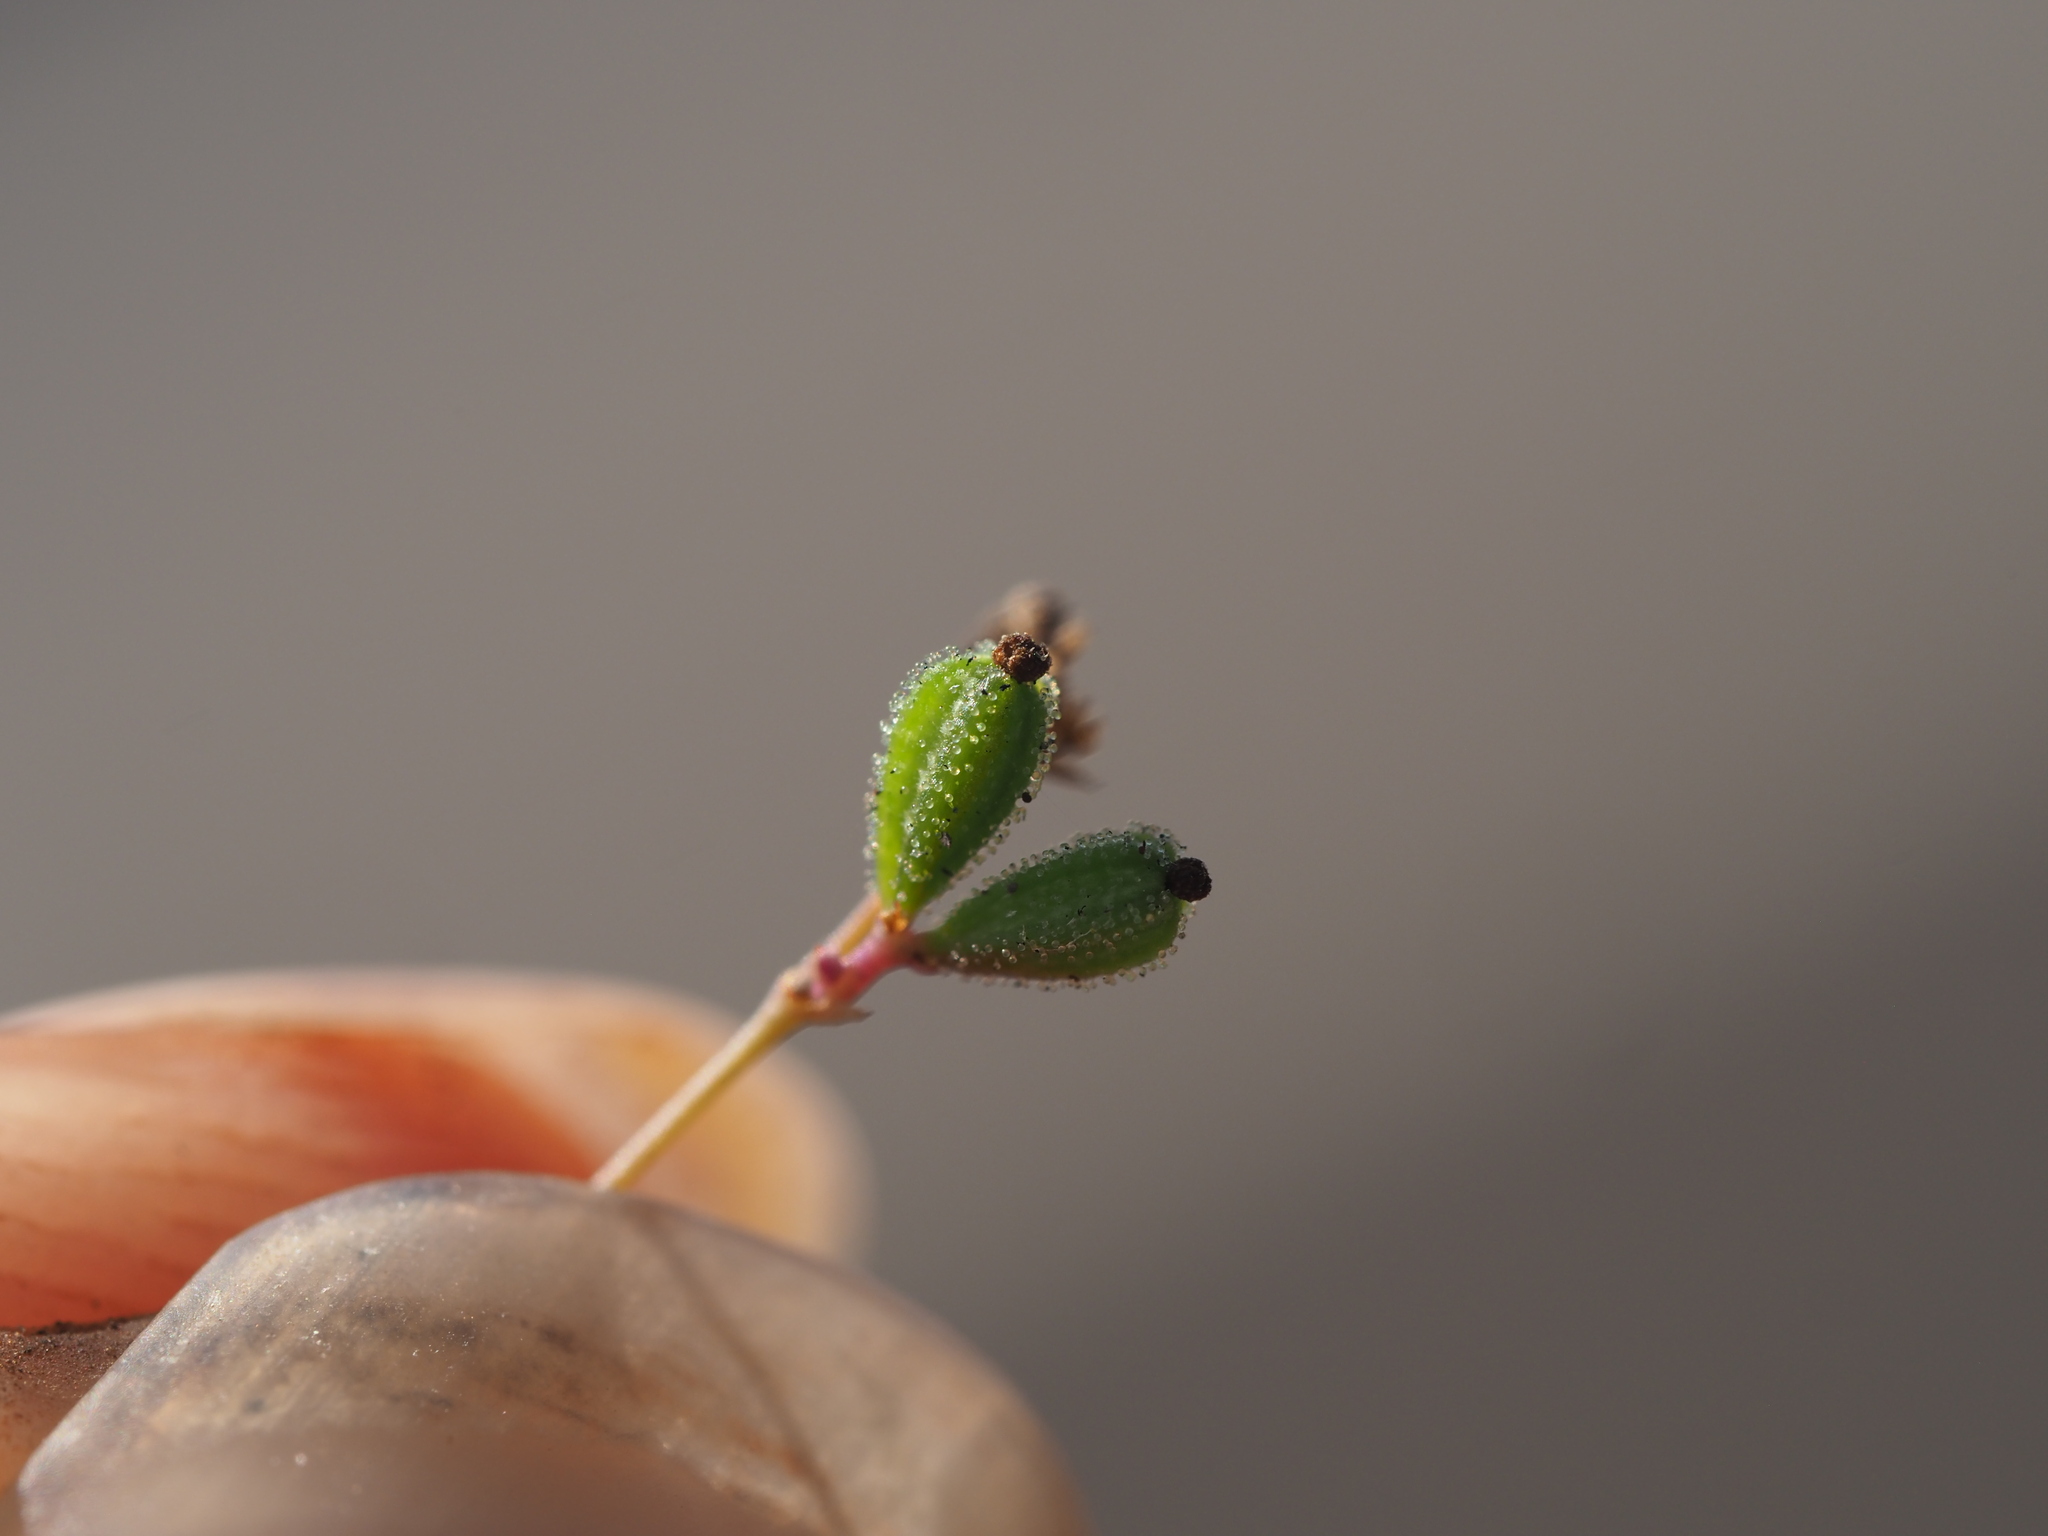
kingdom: Plantae
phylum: Tracheophyta
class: Magnoliopsida
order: Caryophyllales
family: Nyctaginaceae
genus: Boerhavia
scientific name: Boerhavia diffusa
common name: Red spiderling
